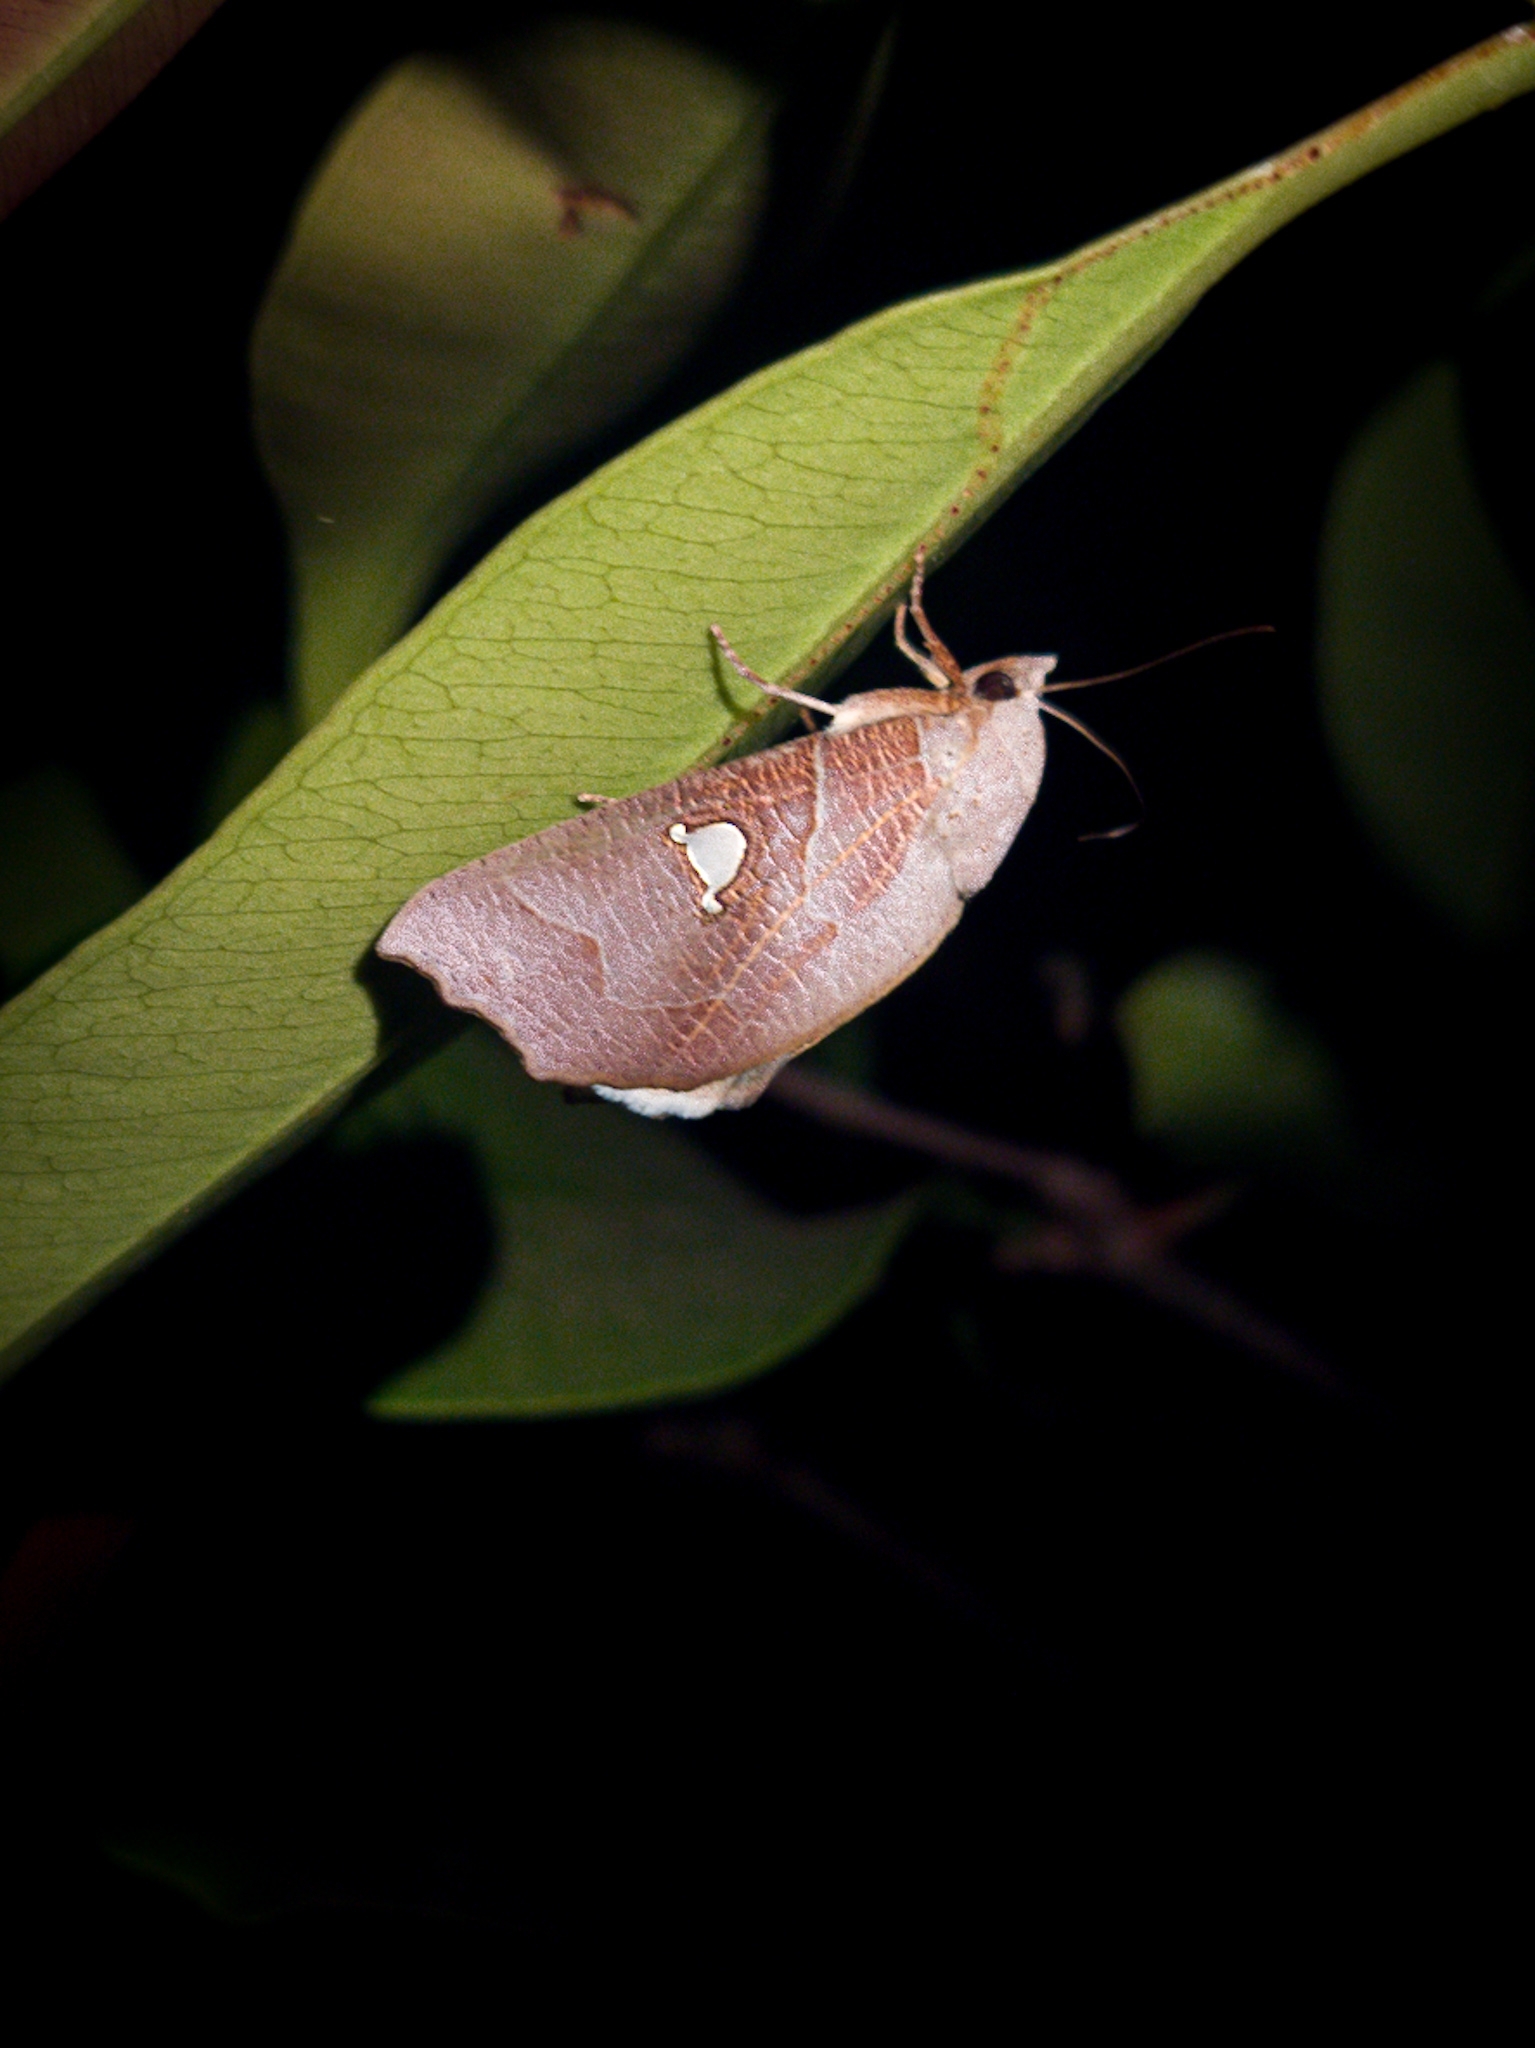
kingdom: Animalia
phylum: Arthropoda
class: Insecta
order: Lepidoptera
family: Nolidae
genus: Pterogonia
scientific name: Pterogonia episcopalis
